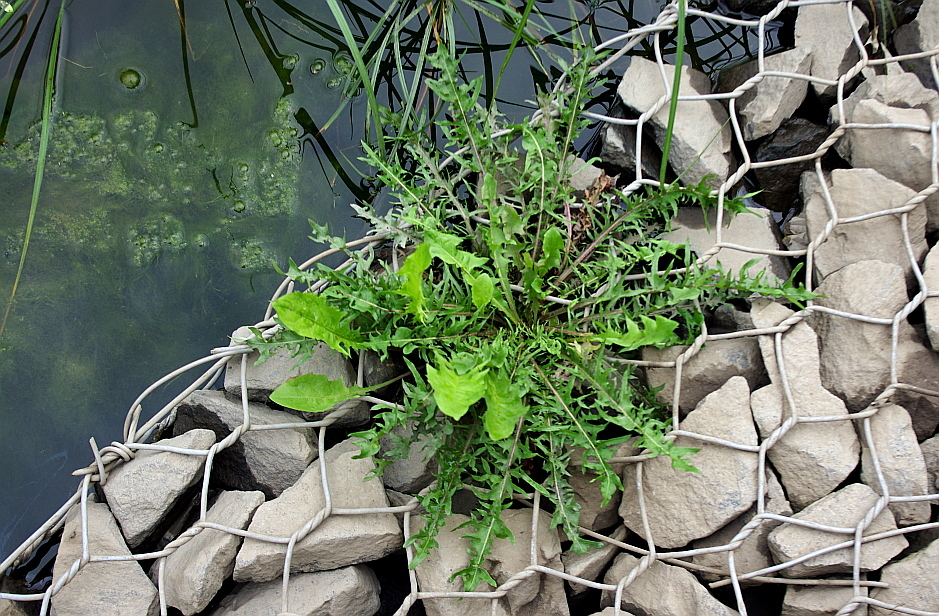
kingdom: Plantae
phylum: Tracheophyta
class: Magnoliopsida
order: Asterales
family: Asteraceae
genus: Taraxacum
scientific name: Taraxacum officinale
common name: Common dandelion
